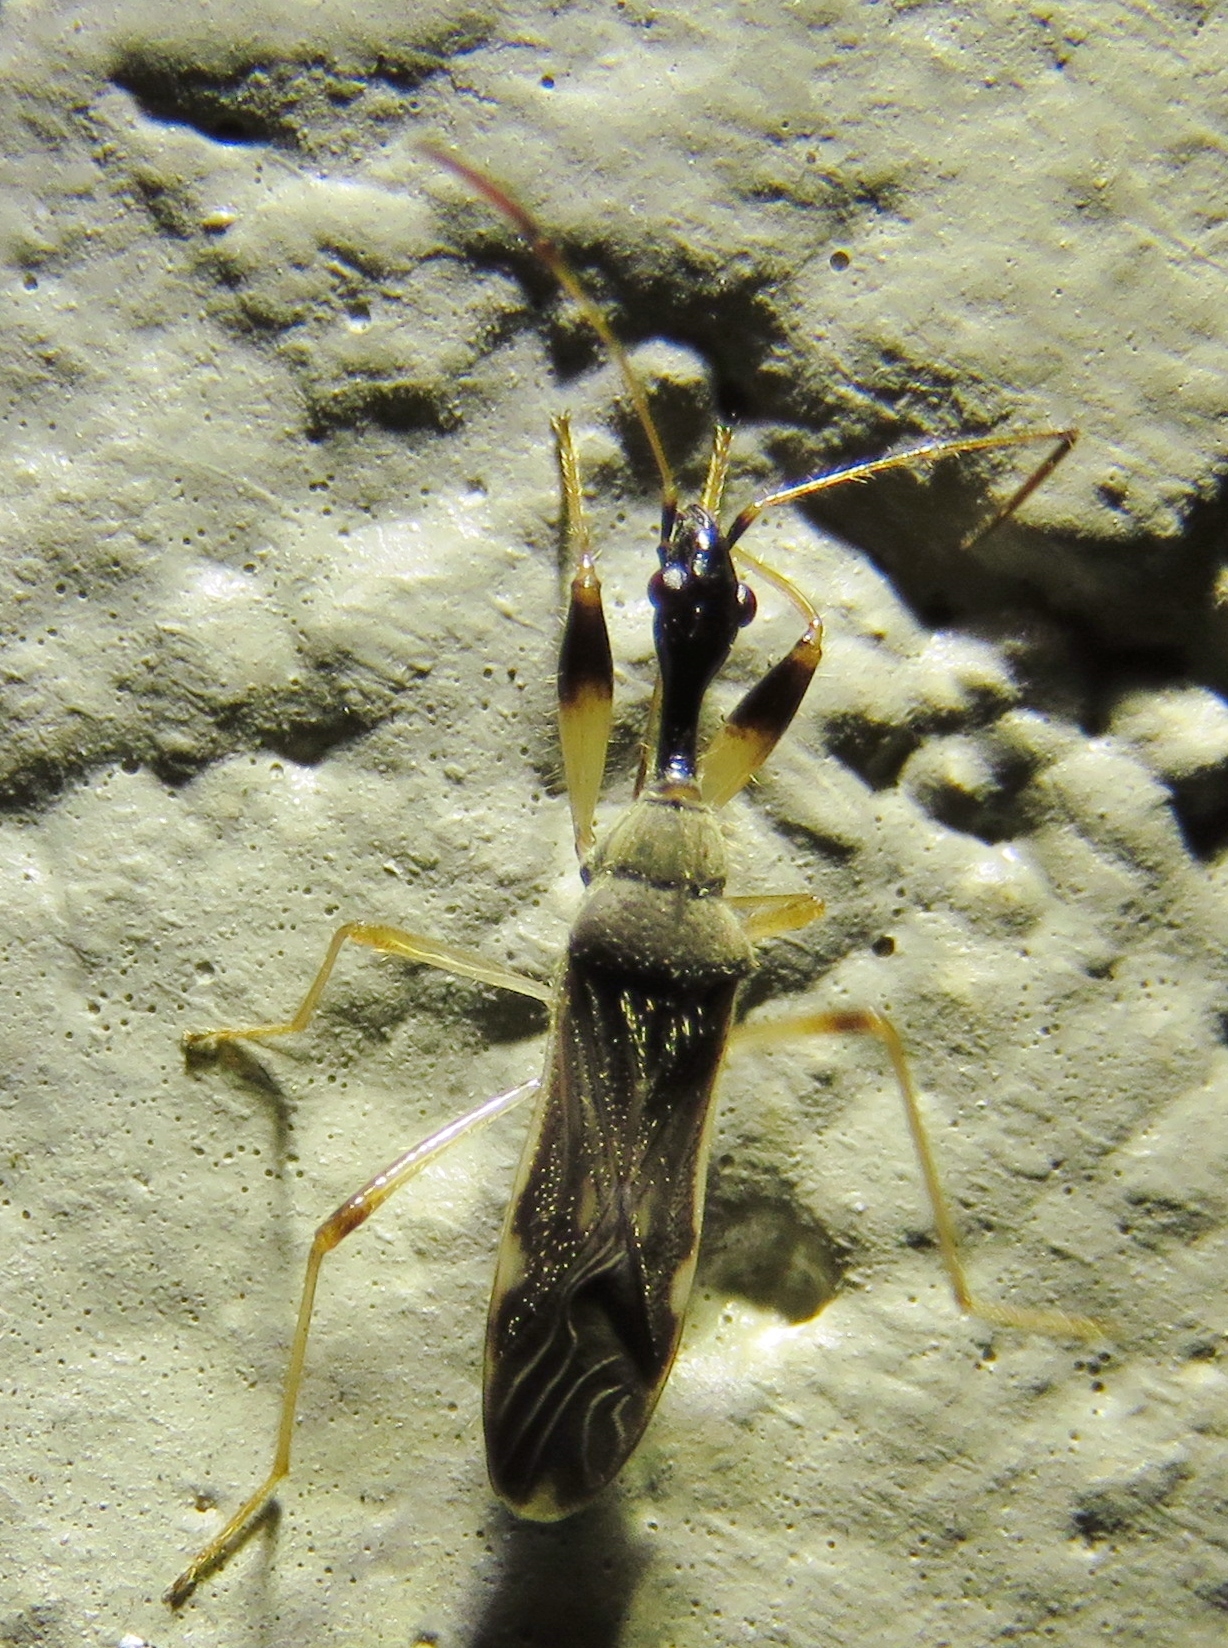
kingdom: Animalia
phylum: Arthropoda
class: Insecta
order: Hemiptera
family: Rhyparochromidae
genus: Myodocha
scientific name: Myodocha serripes
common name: Long-necked seed bug
